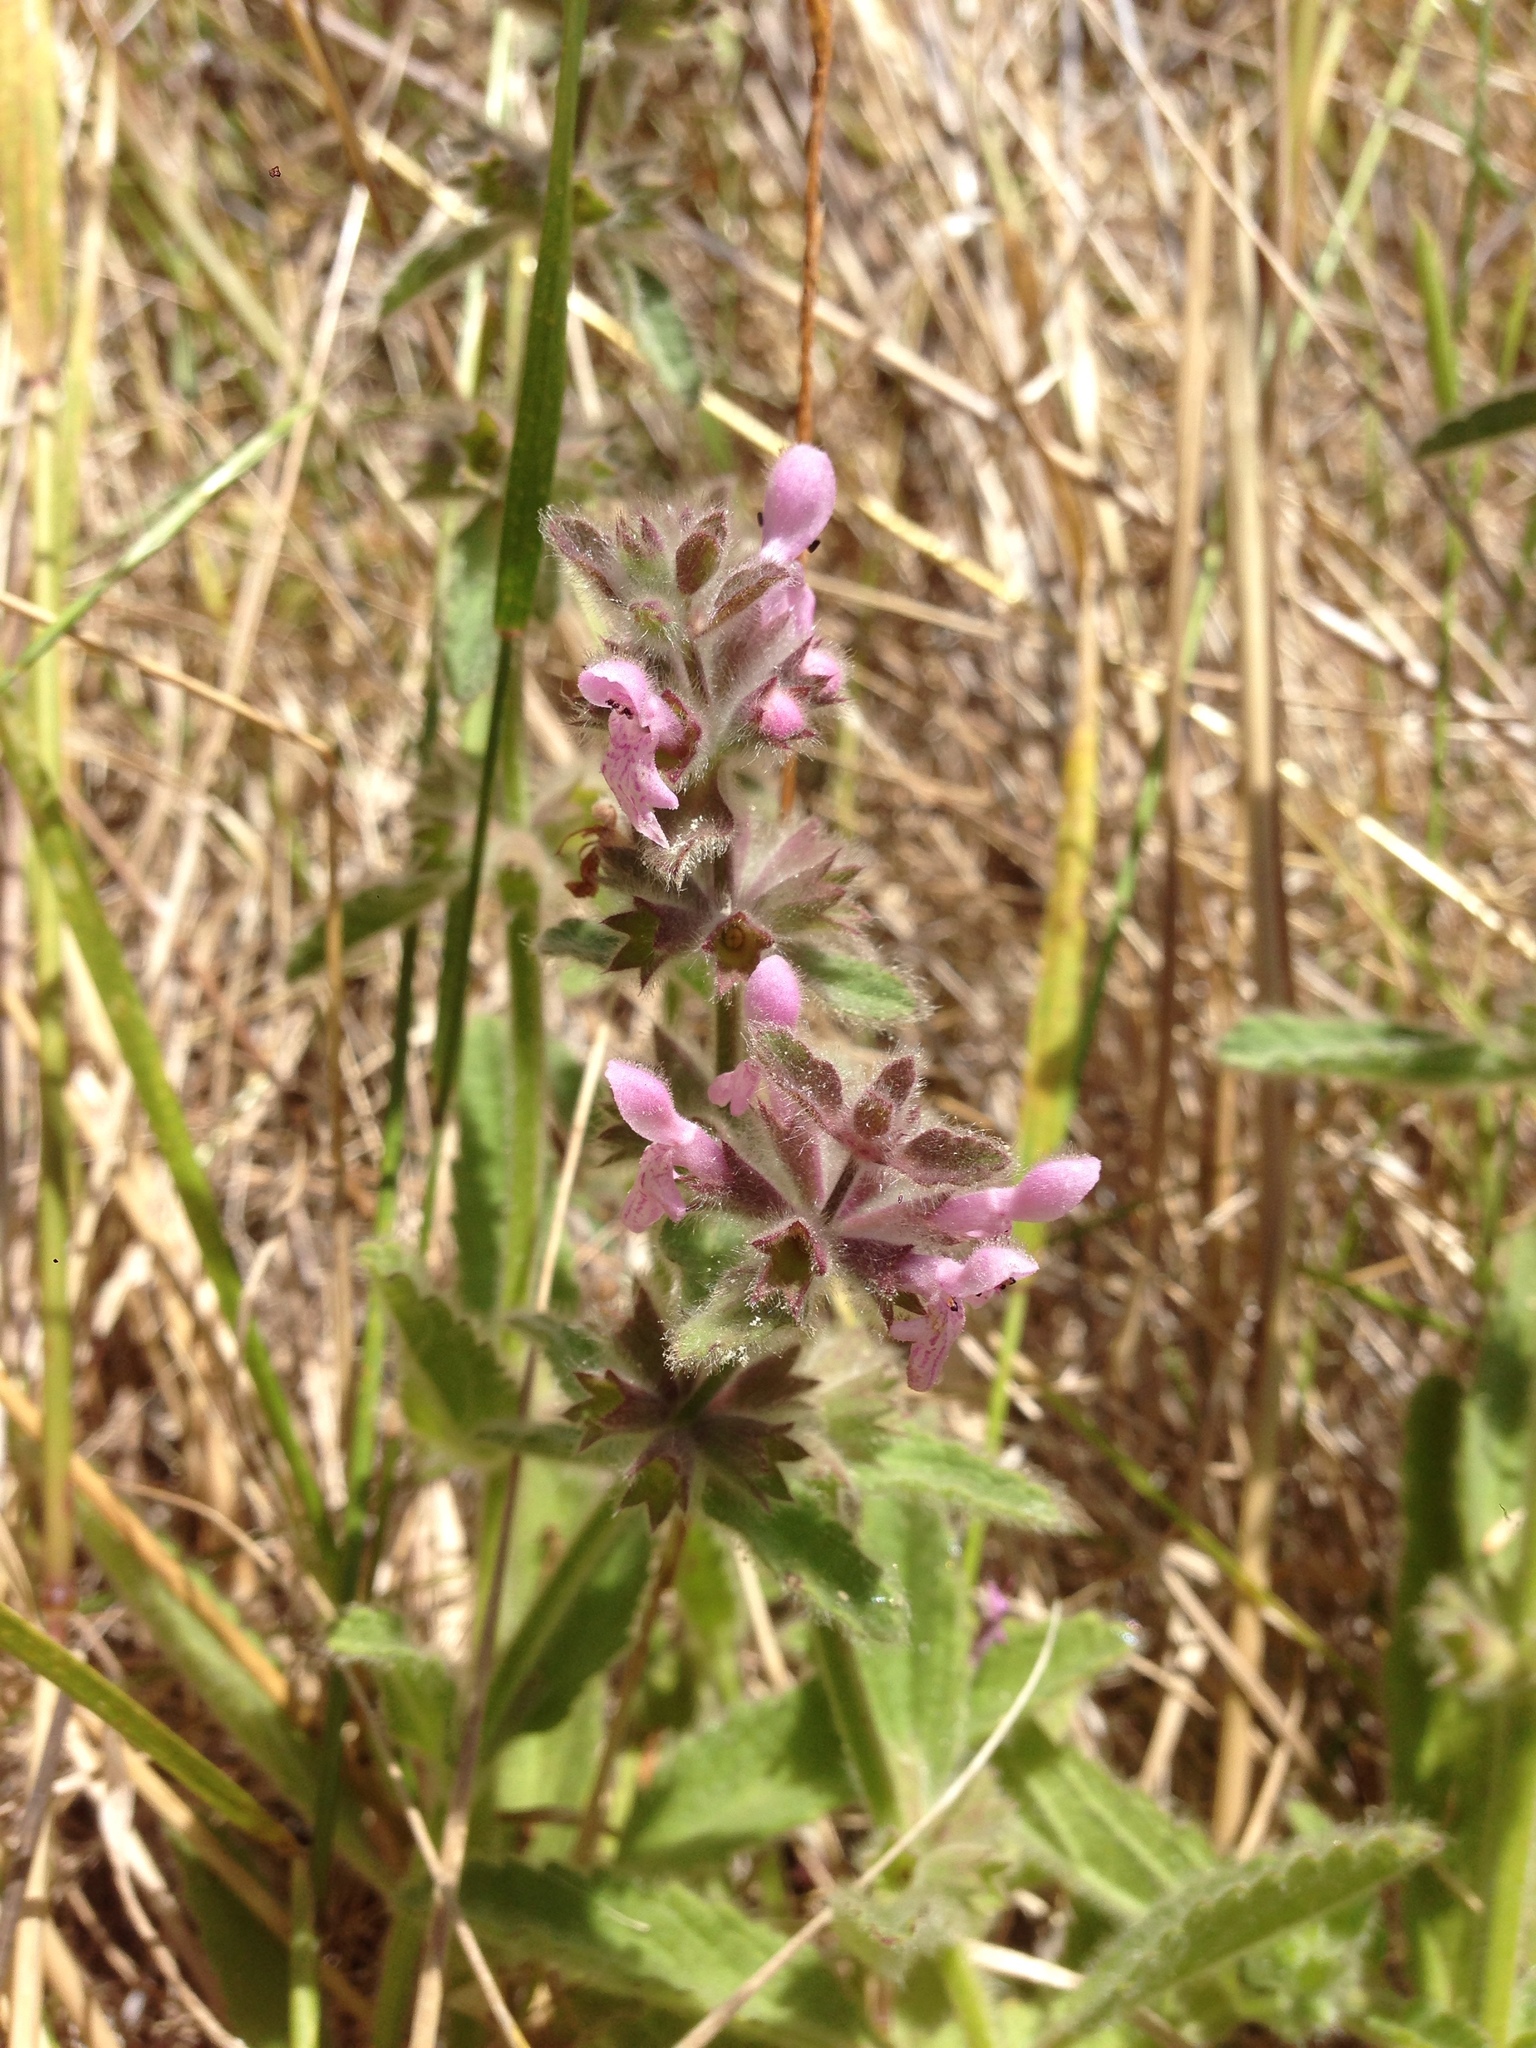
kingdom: Plantae
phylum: Tracheophyta
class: Magnoliopsida
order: Lamiales
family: Lamiaceae
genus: Stachys
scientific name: Stachys ajugoides
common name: Hedge-nettle
